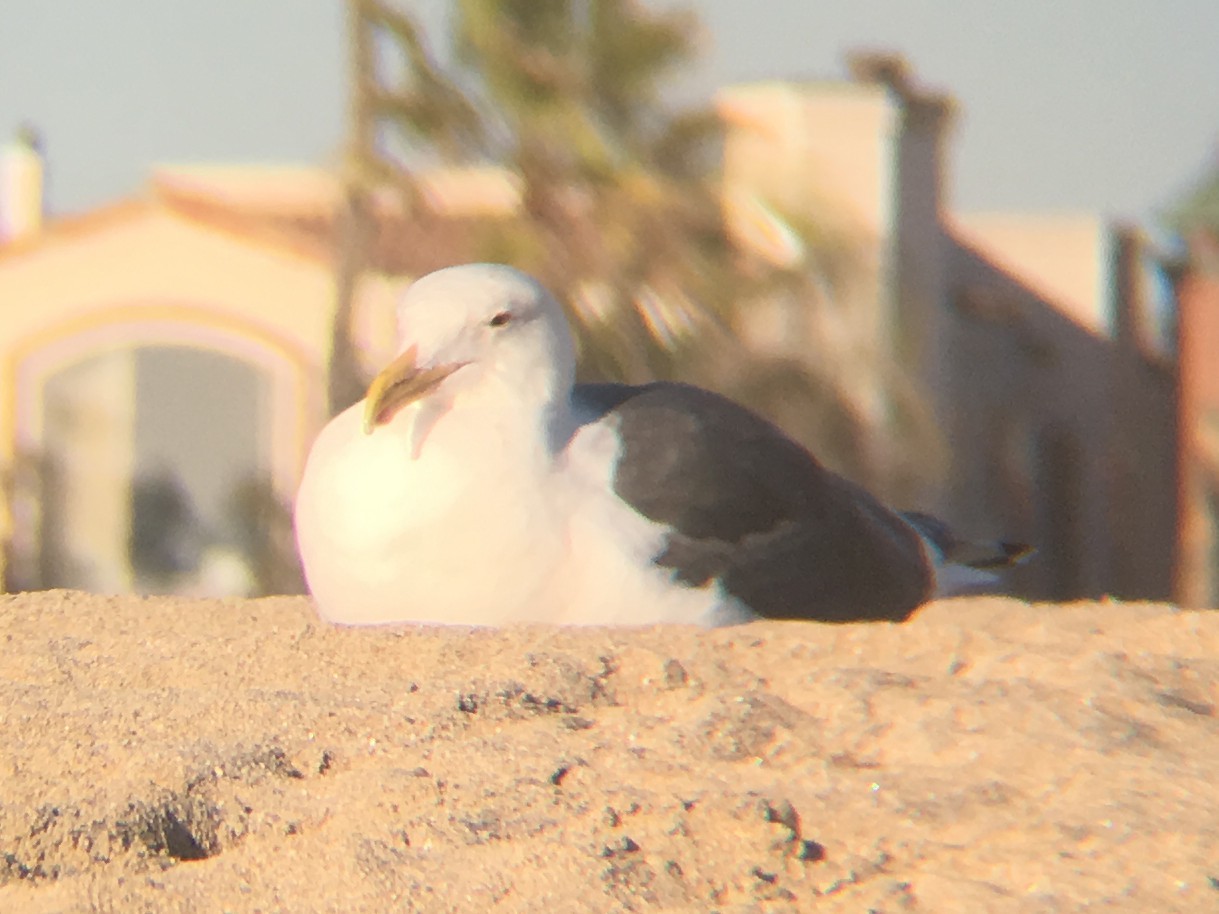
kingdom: Animalia
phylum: Chordata
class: Aves
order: Charadriiformes
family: Laridae
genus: Larus
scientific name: Larus occidentalis
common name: Western gull
